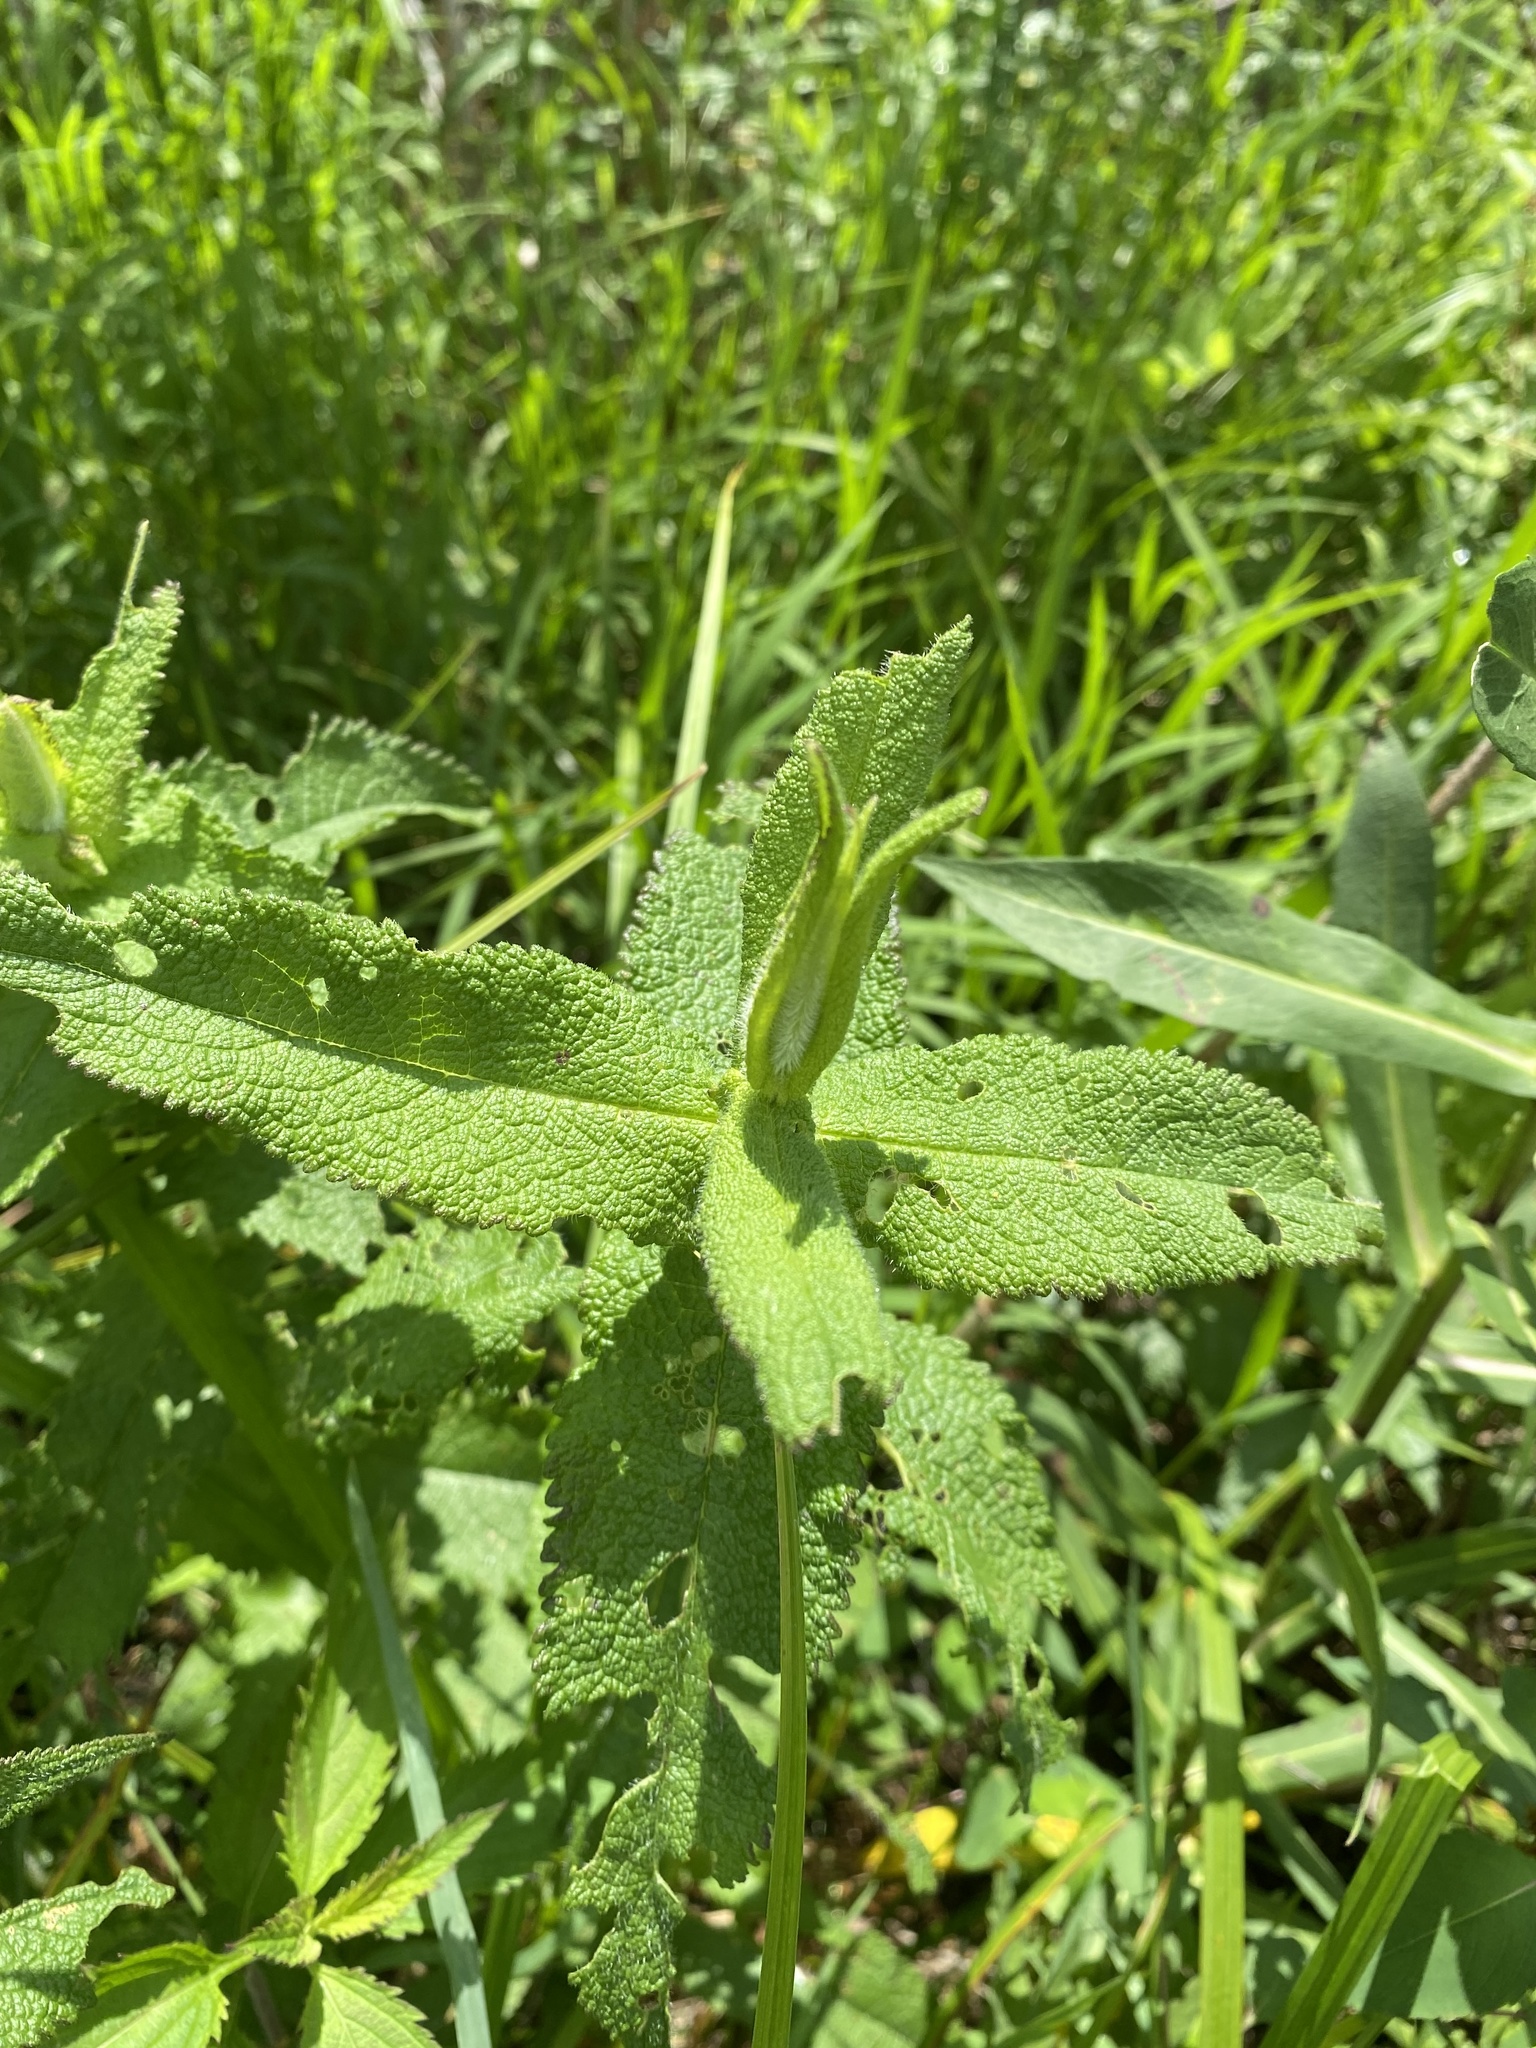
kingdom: Plantae
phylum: Tracheophyta
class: Magnoliopsida
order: Asterales
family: Asteraceae
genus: Eupatorium
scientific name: Eupatorium perfoliatum
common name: Boneset
